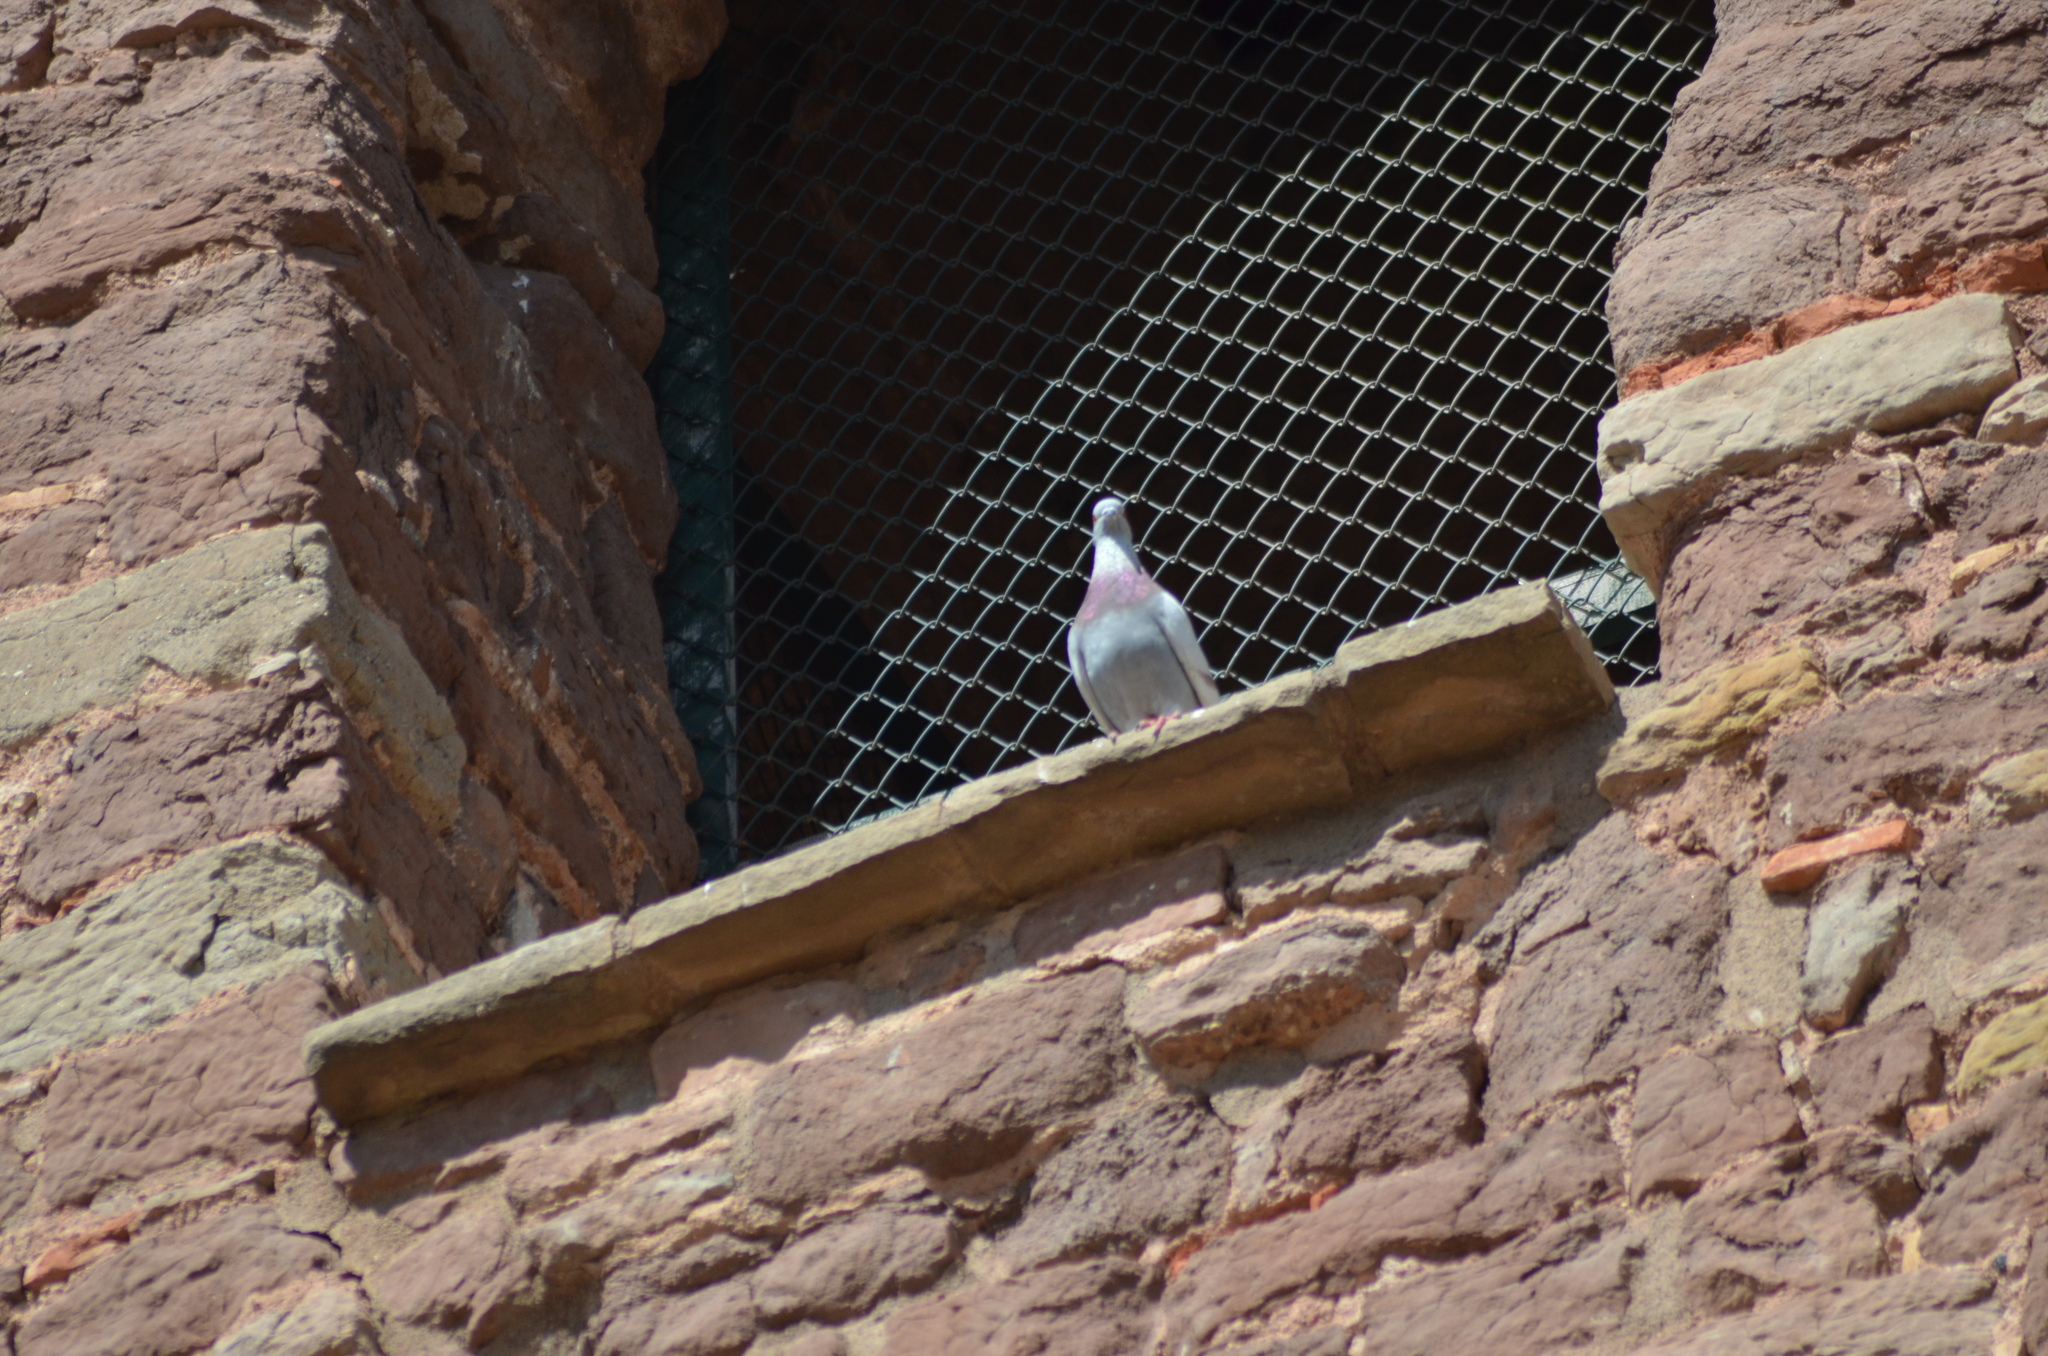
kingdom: Animalia
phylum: Chordata
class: Aves
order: Columbiformes
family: Columbidae
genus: Columba
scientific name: Columba livia
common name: Rock pigeon
